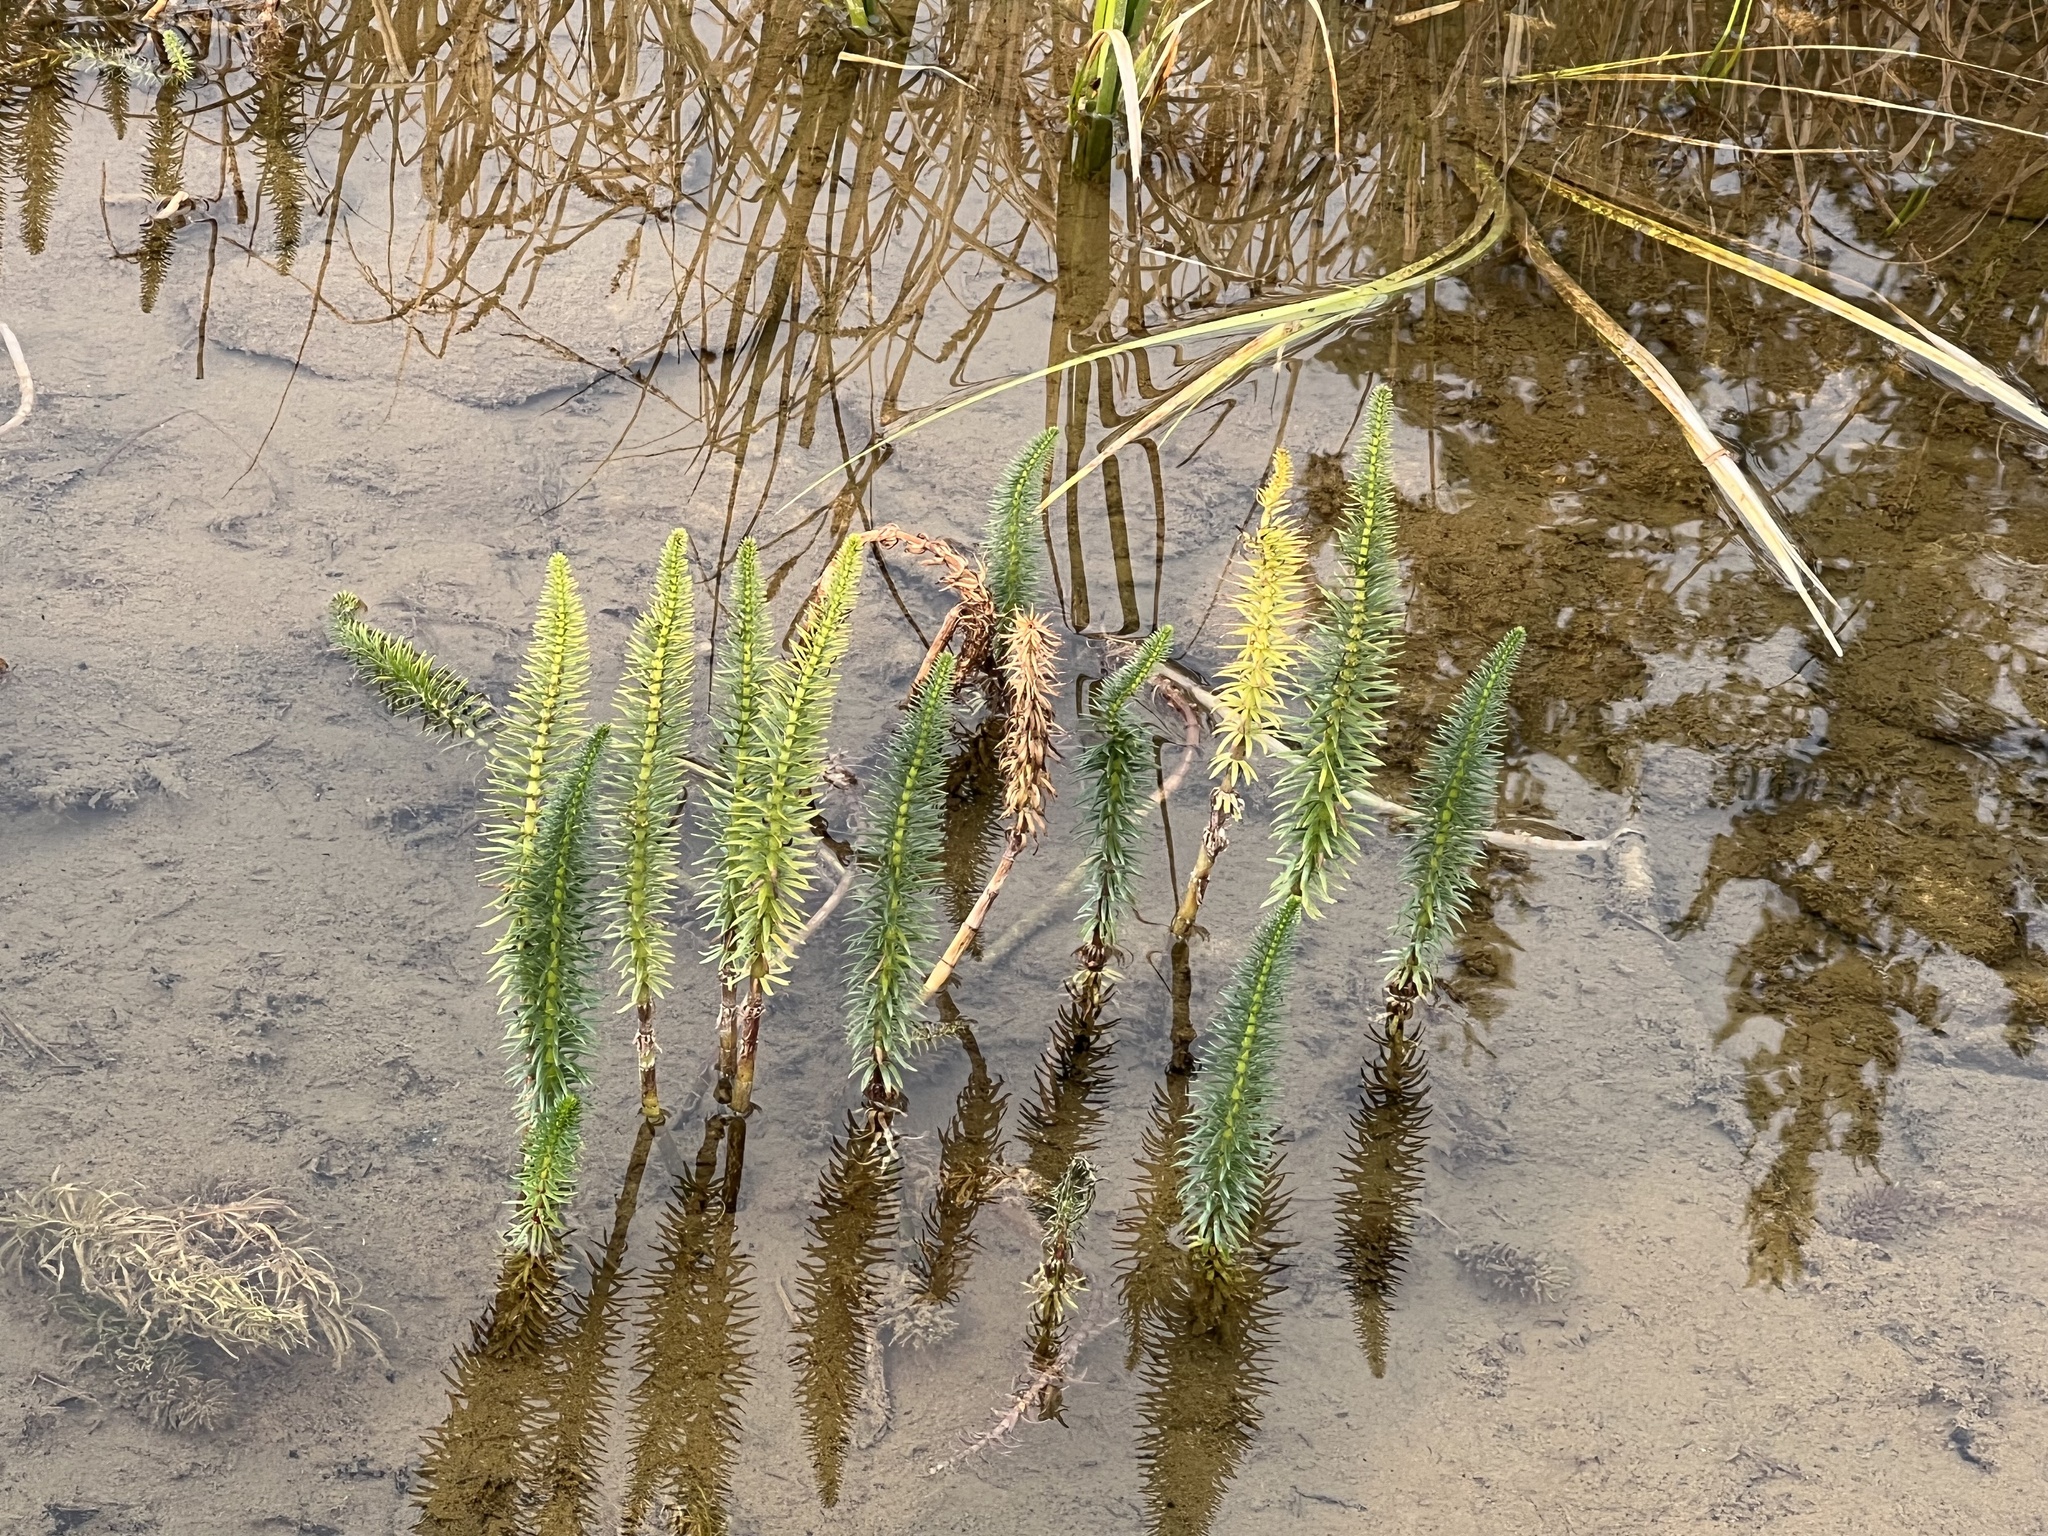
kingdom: Plantae
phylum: Tracheophyta
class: Magnoliopsida
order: Lamiales
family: Plantaginaceae
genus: Hippuris
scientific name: Hippuris vulgaris
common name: Mare's-tail
